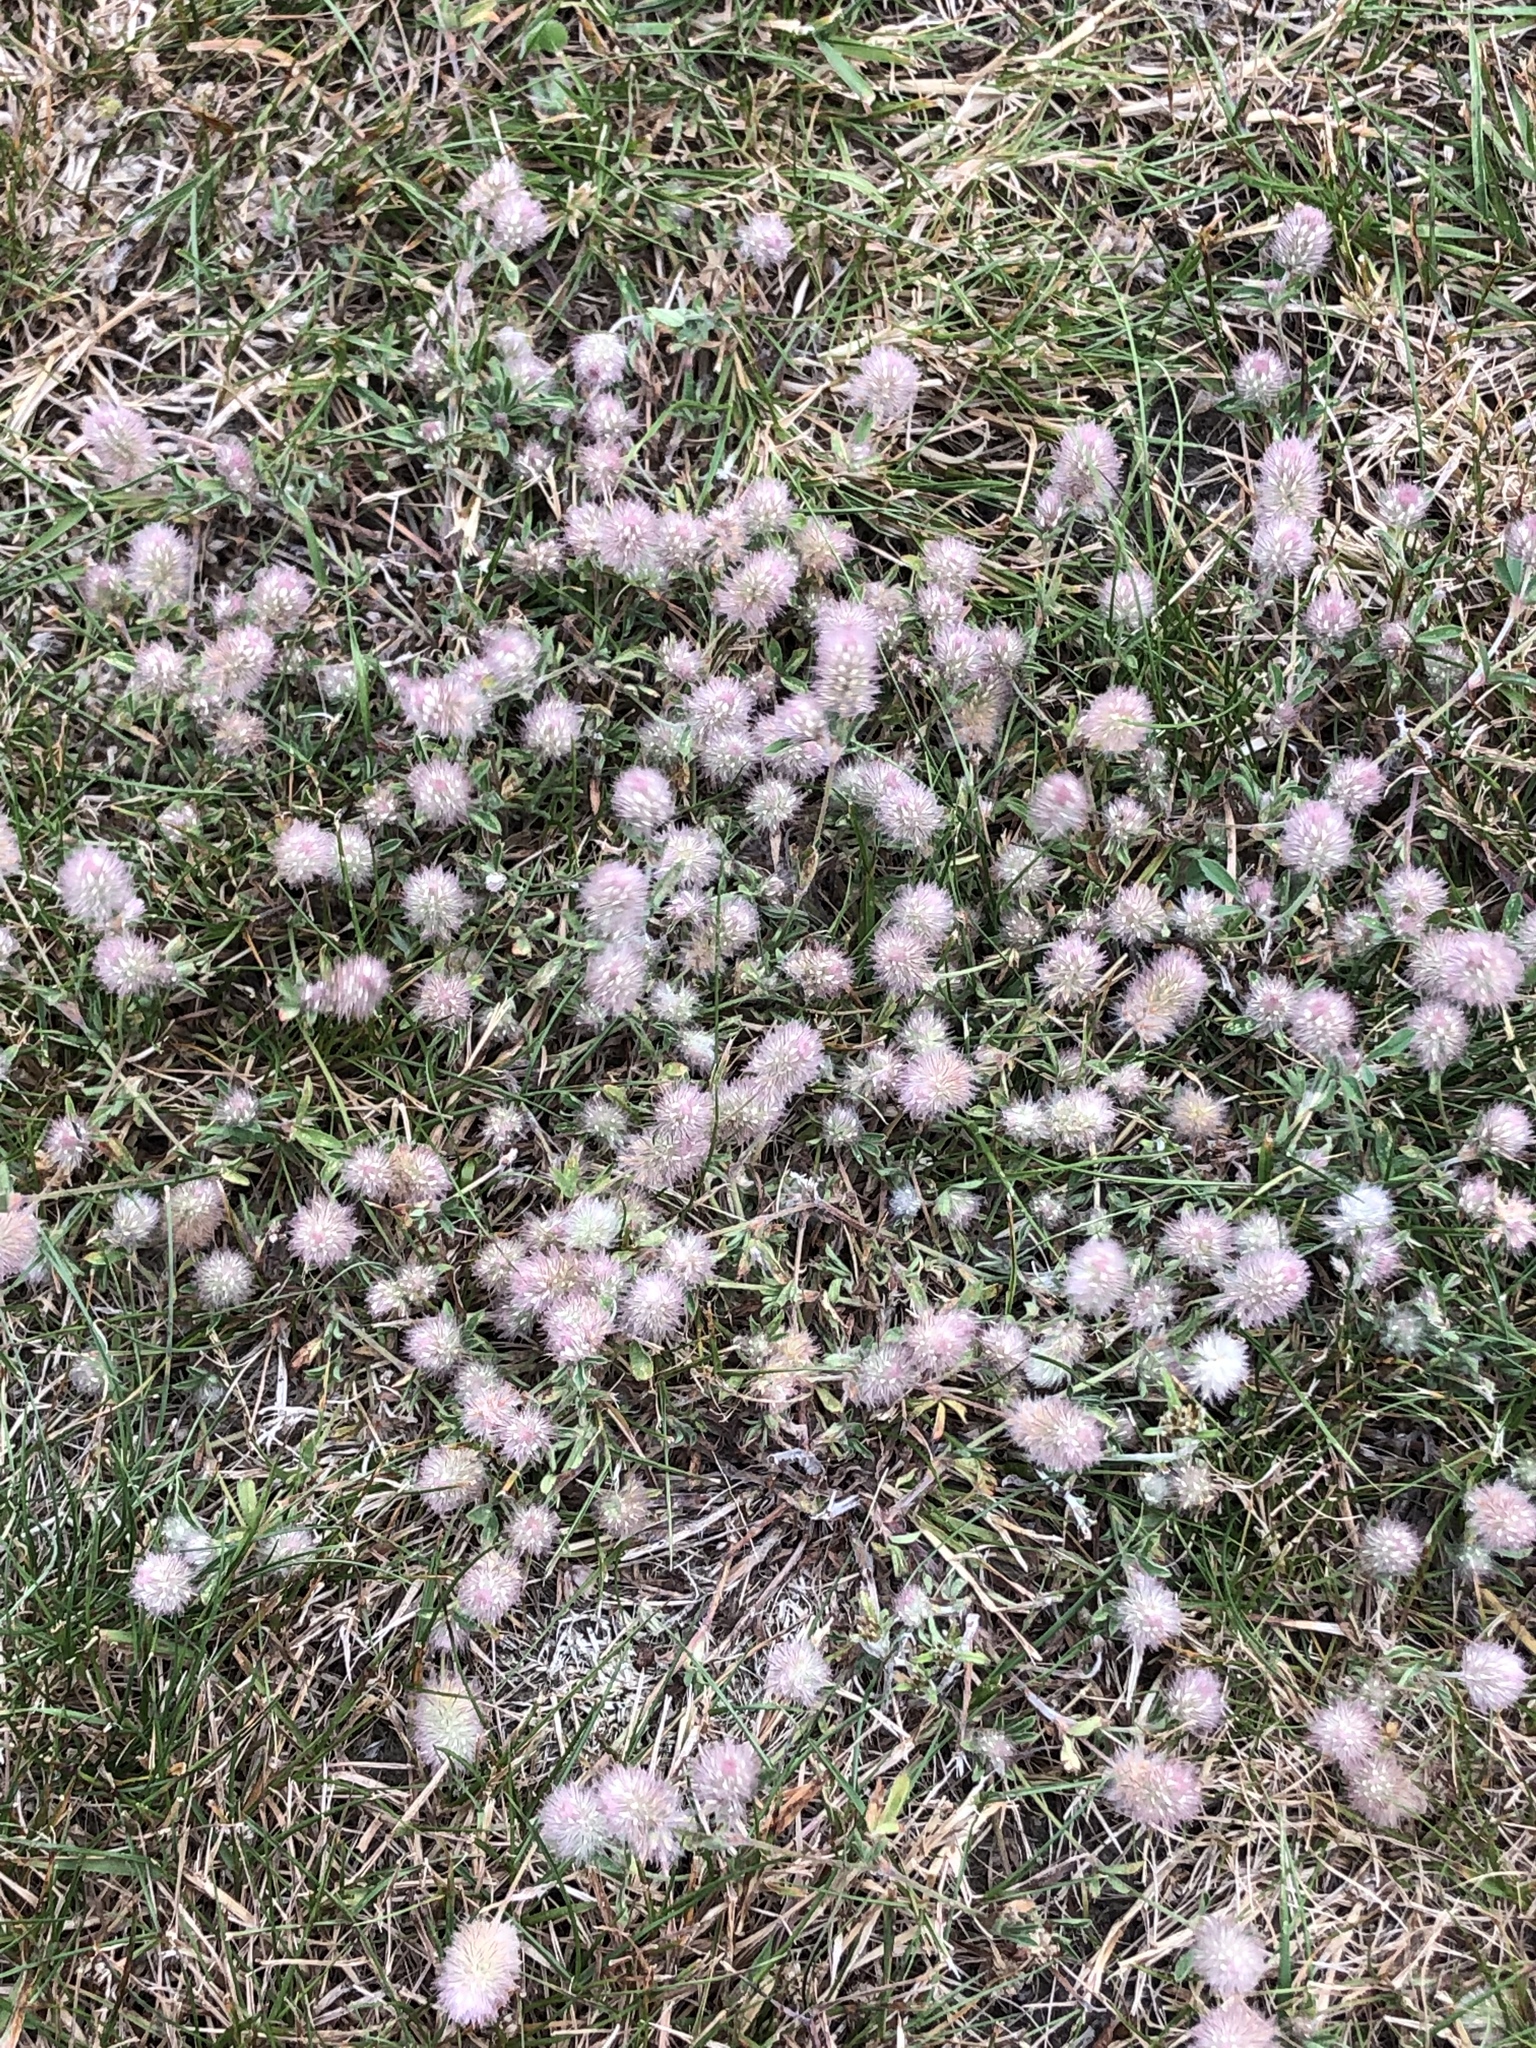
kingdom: Plantae
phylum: Tracheophyta
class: Magnoliopsida
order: Fabales
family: Fabaceae
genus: Trifolium
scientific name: Trifolium arvense
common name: Hare's-foot clover
